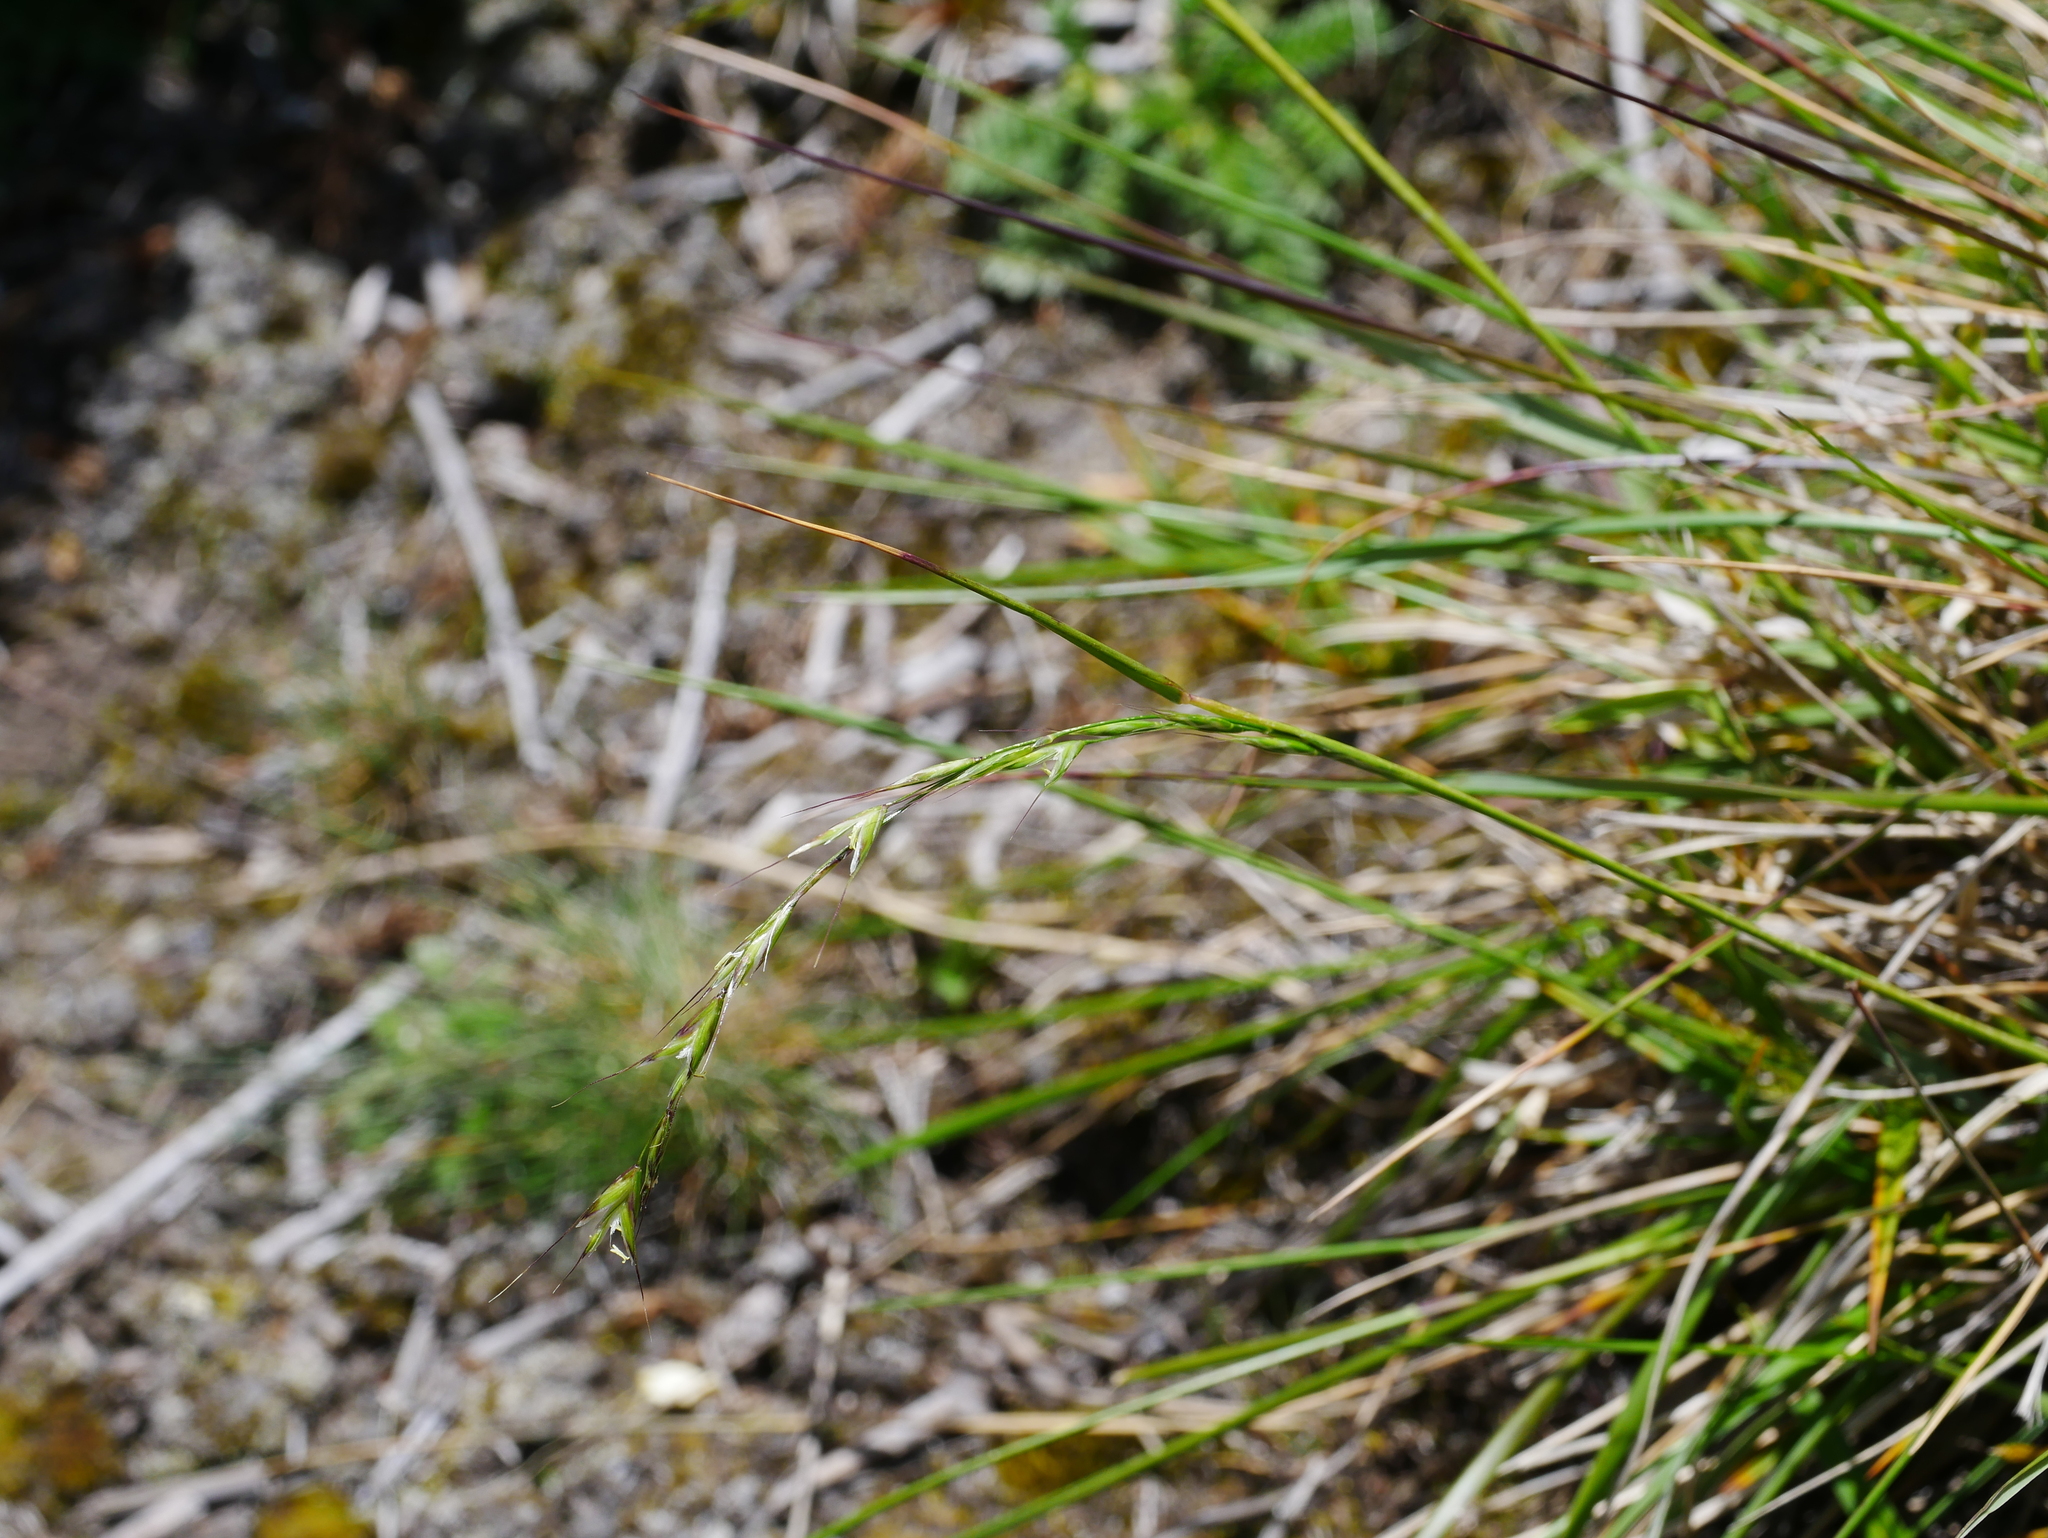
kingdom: Plantae
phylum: Tracheophyta
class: Liliopsida
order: Poales
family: Poaceae
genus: Helictotrichon
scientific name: Helictotrichon hideoi
